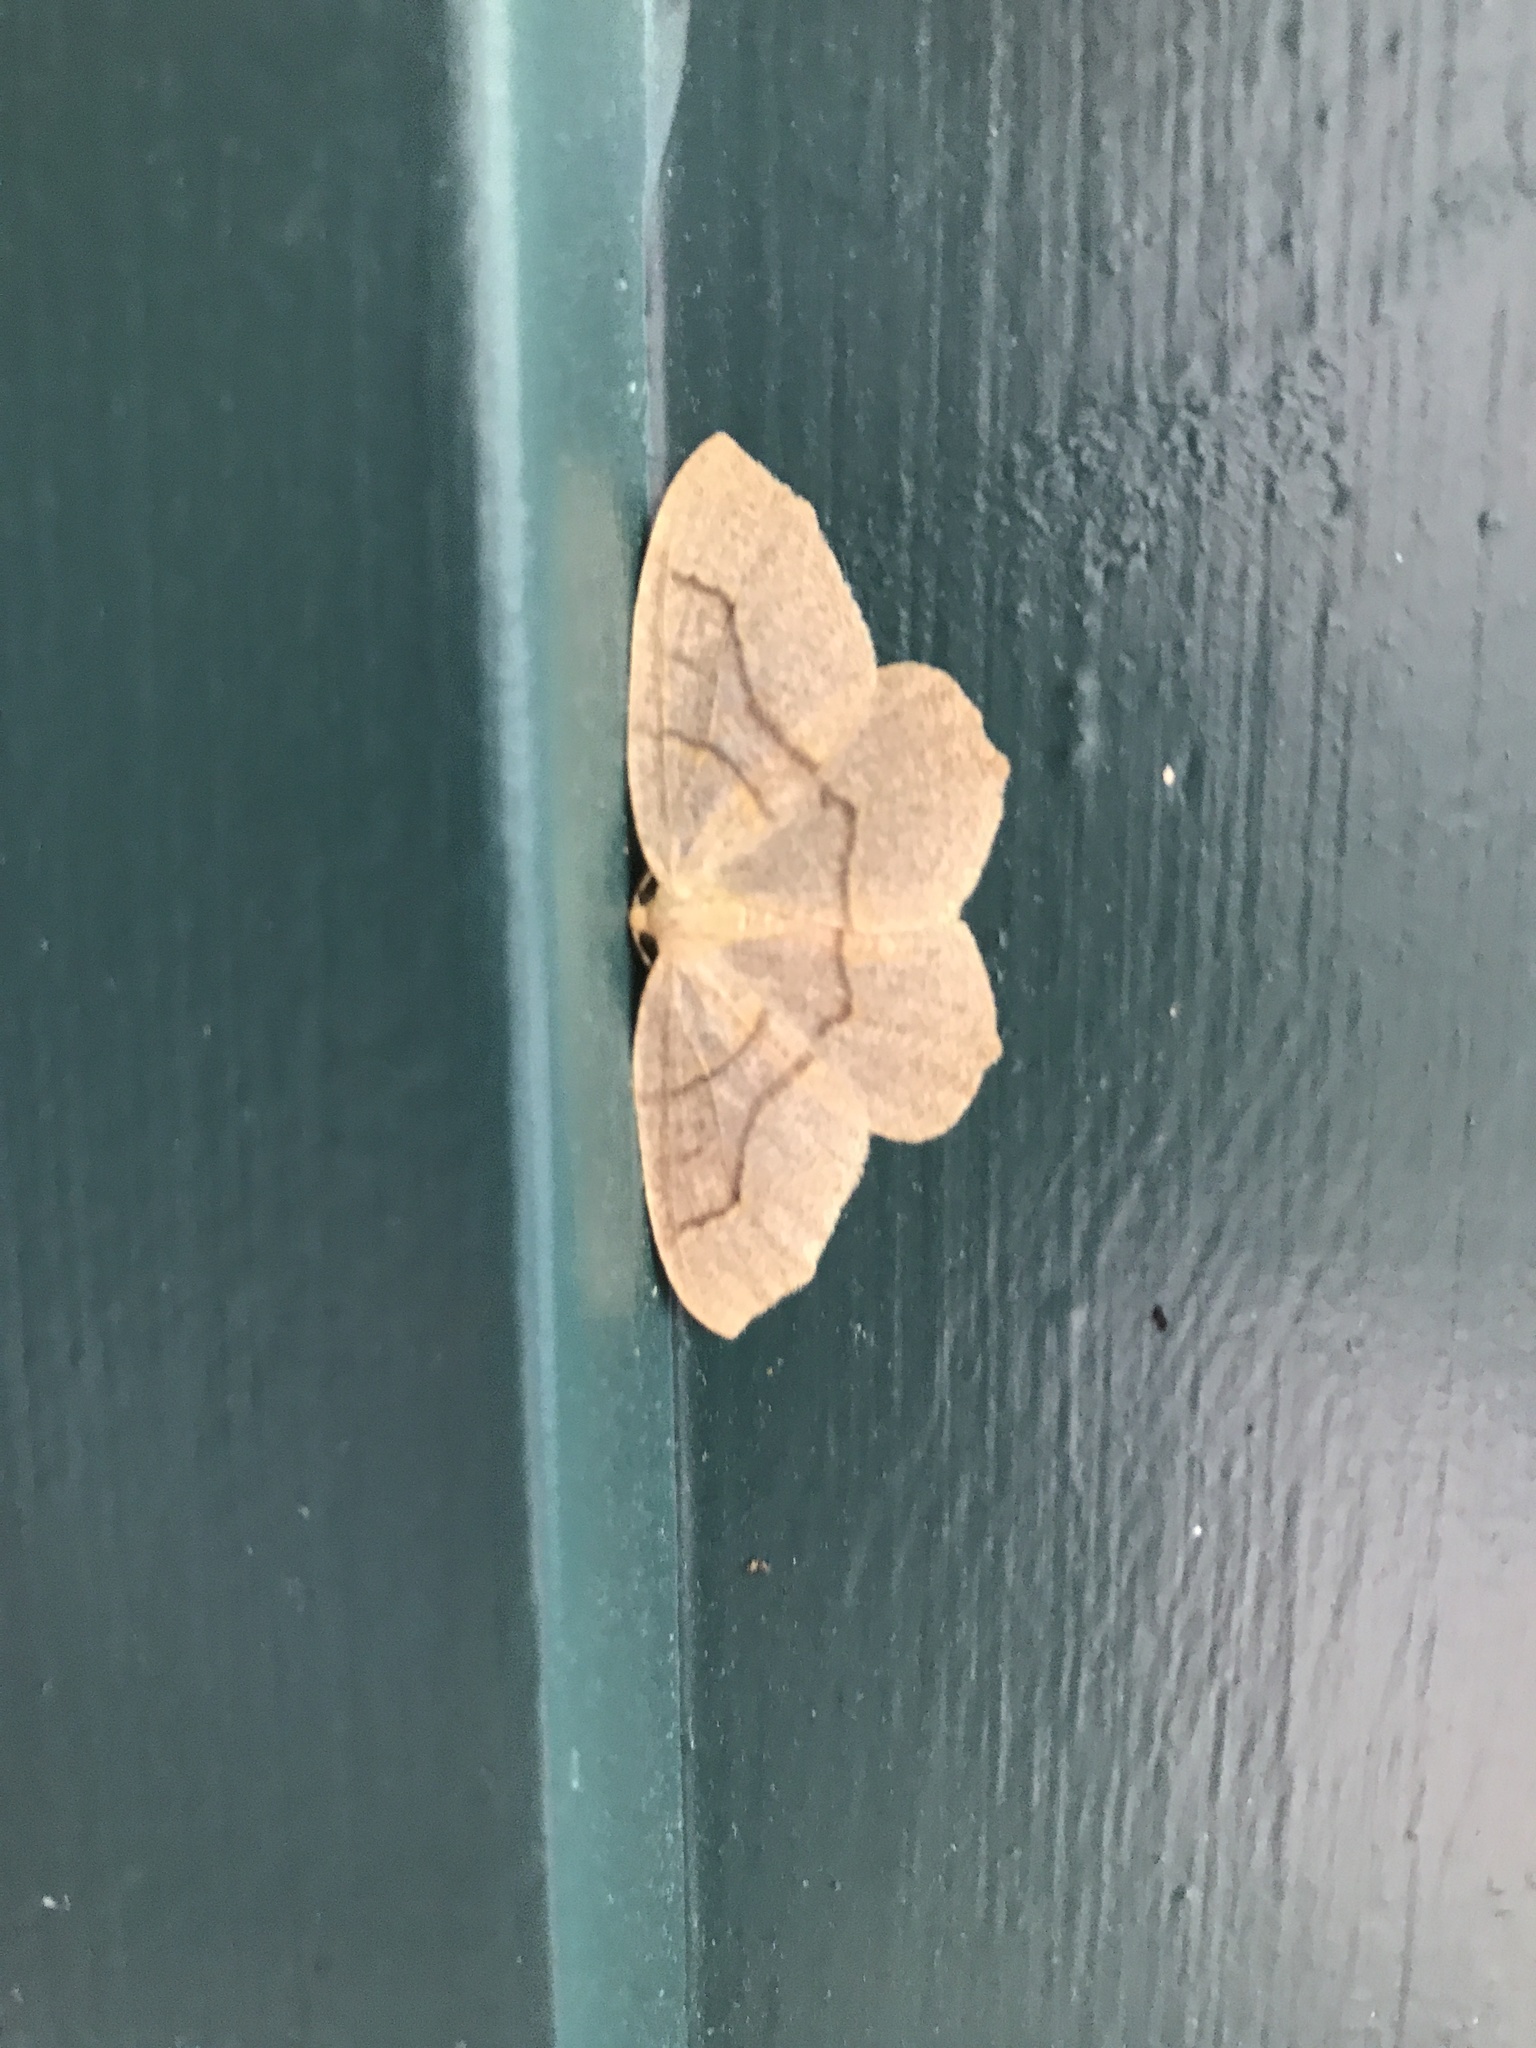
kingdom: Animalia
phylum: Arthropoda
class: Insecta
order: Lepidoptera
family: Geometridae
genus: Lambdina
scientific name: Lambdina fiscellaria
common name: Hemlock looper
